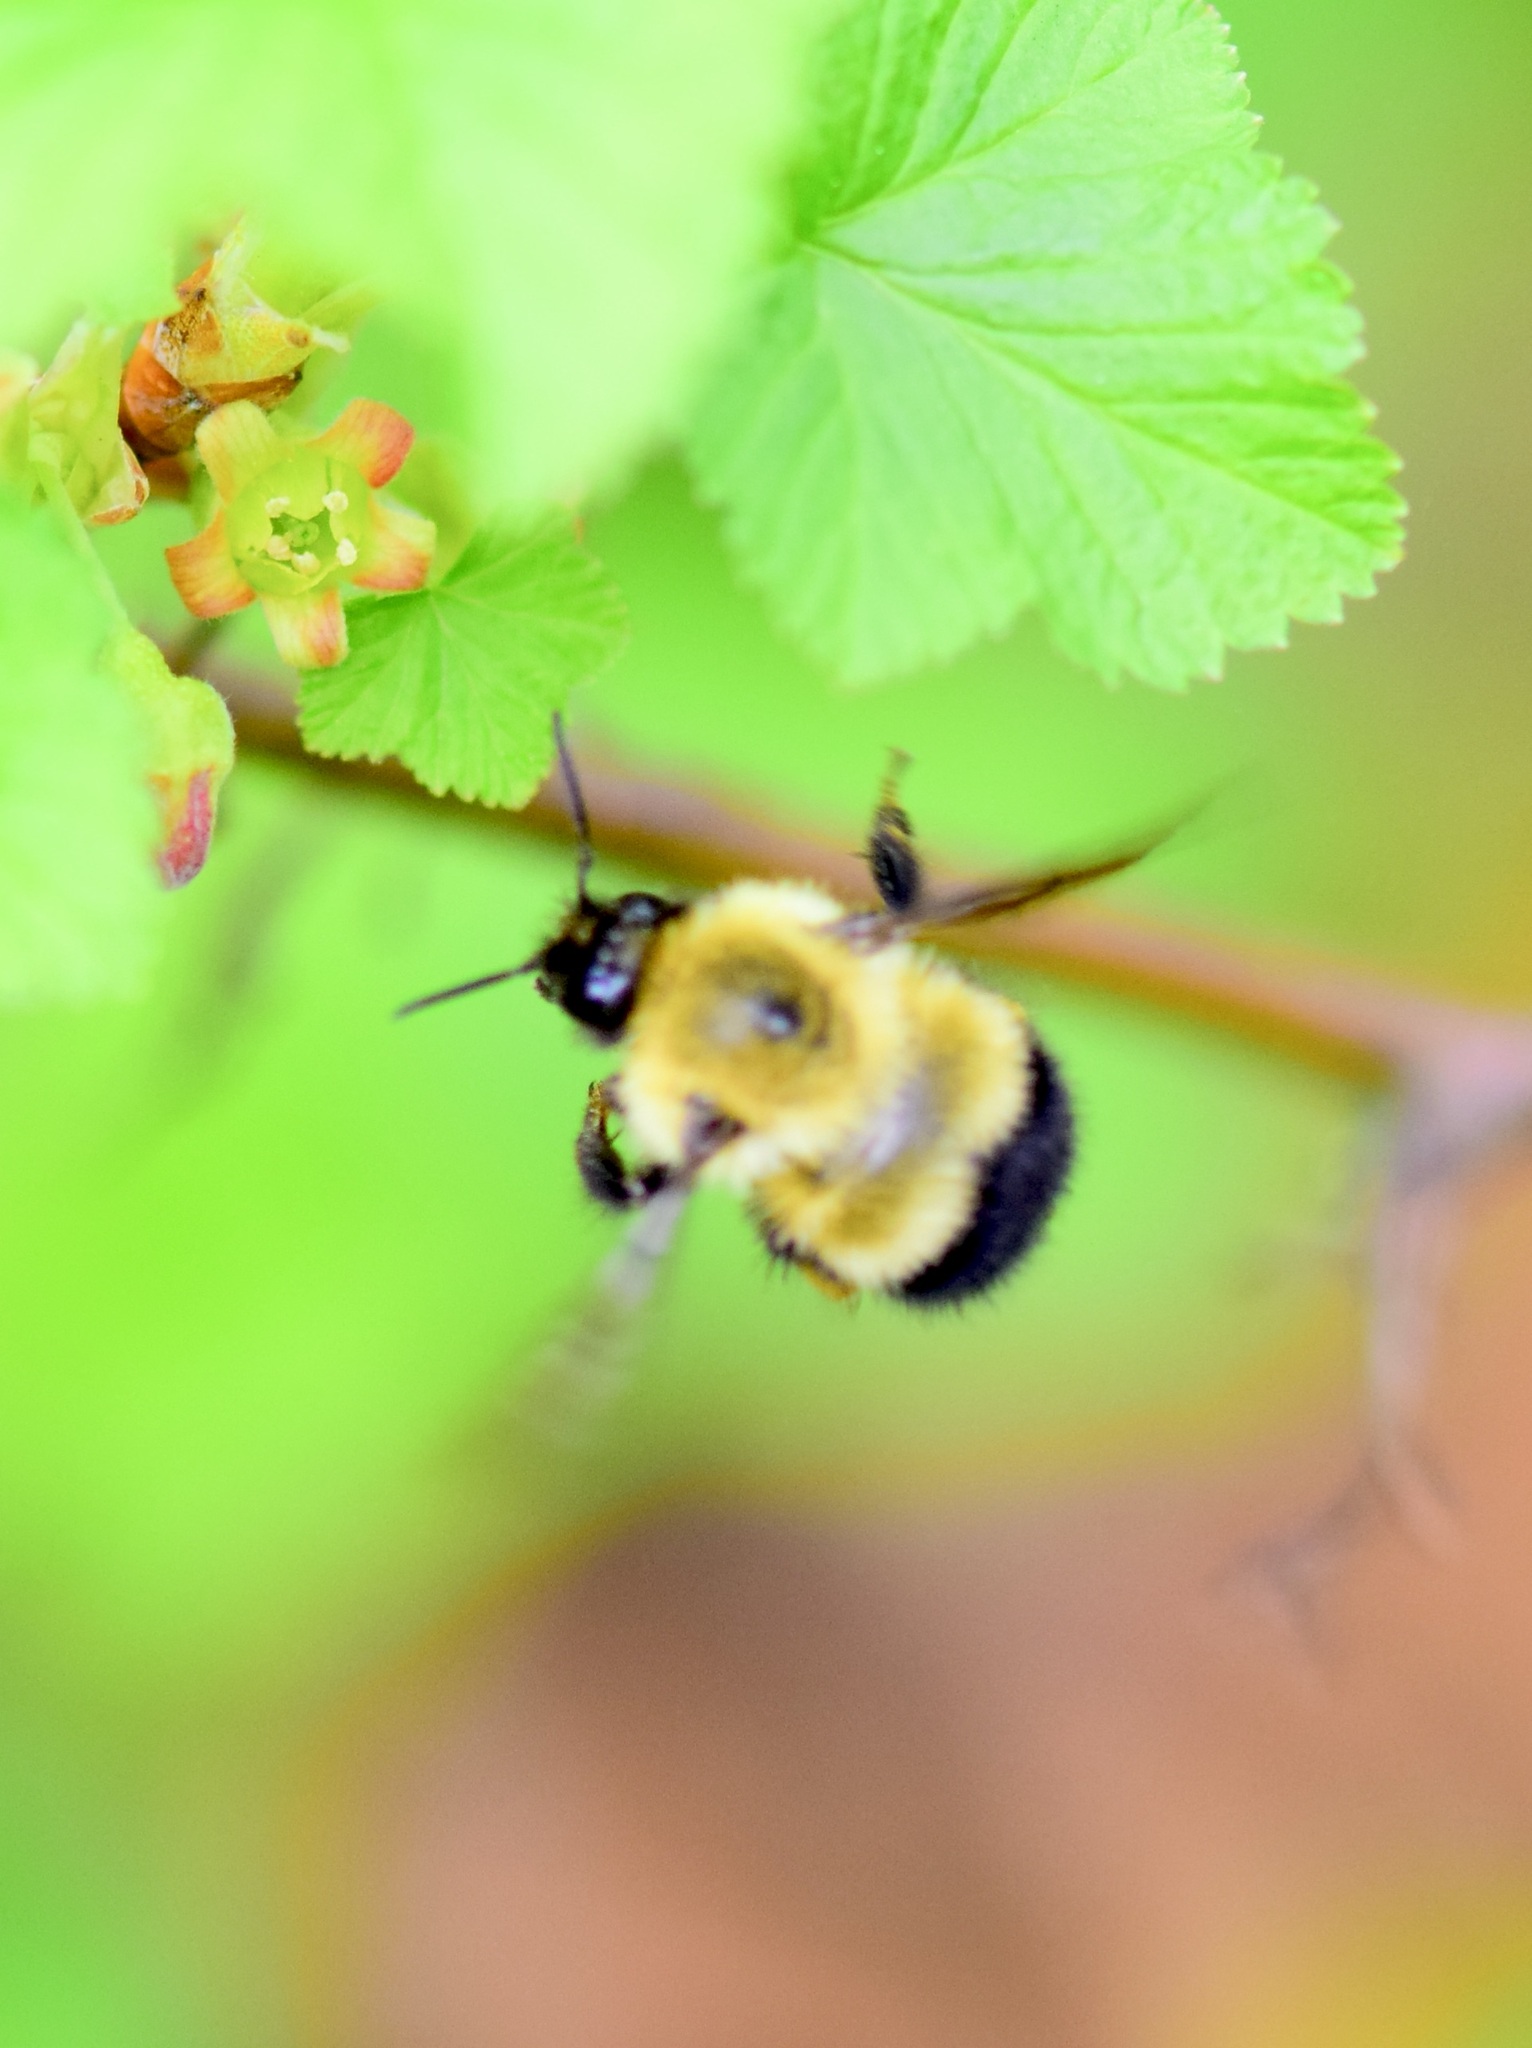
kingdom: Animalia
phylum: Arthropoda
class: Insecta
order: Hymenoptera
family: Apidae
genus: Bombus
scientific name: Bombus perplexus
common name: Confusing bumble bee
